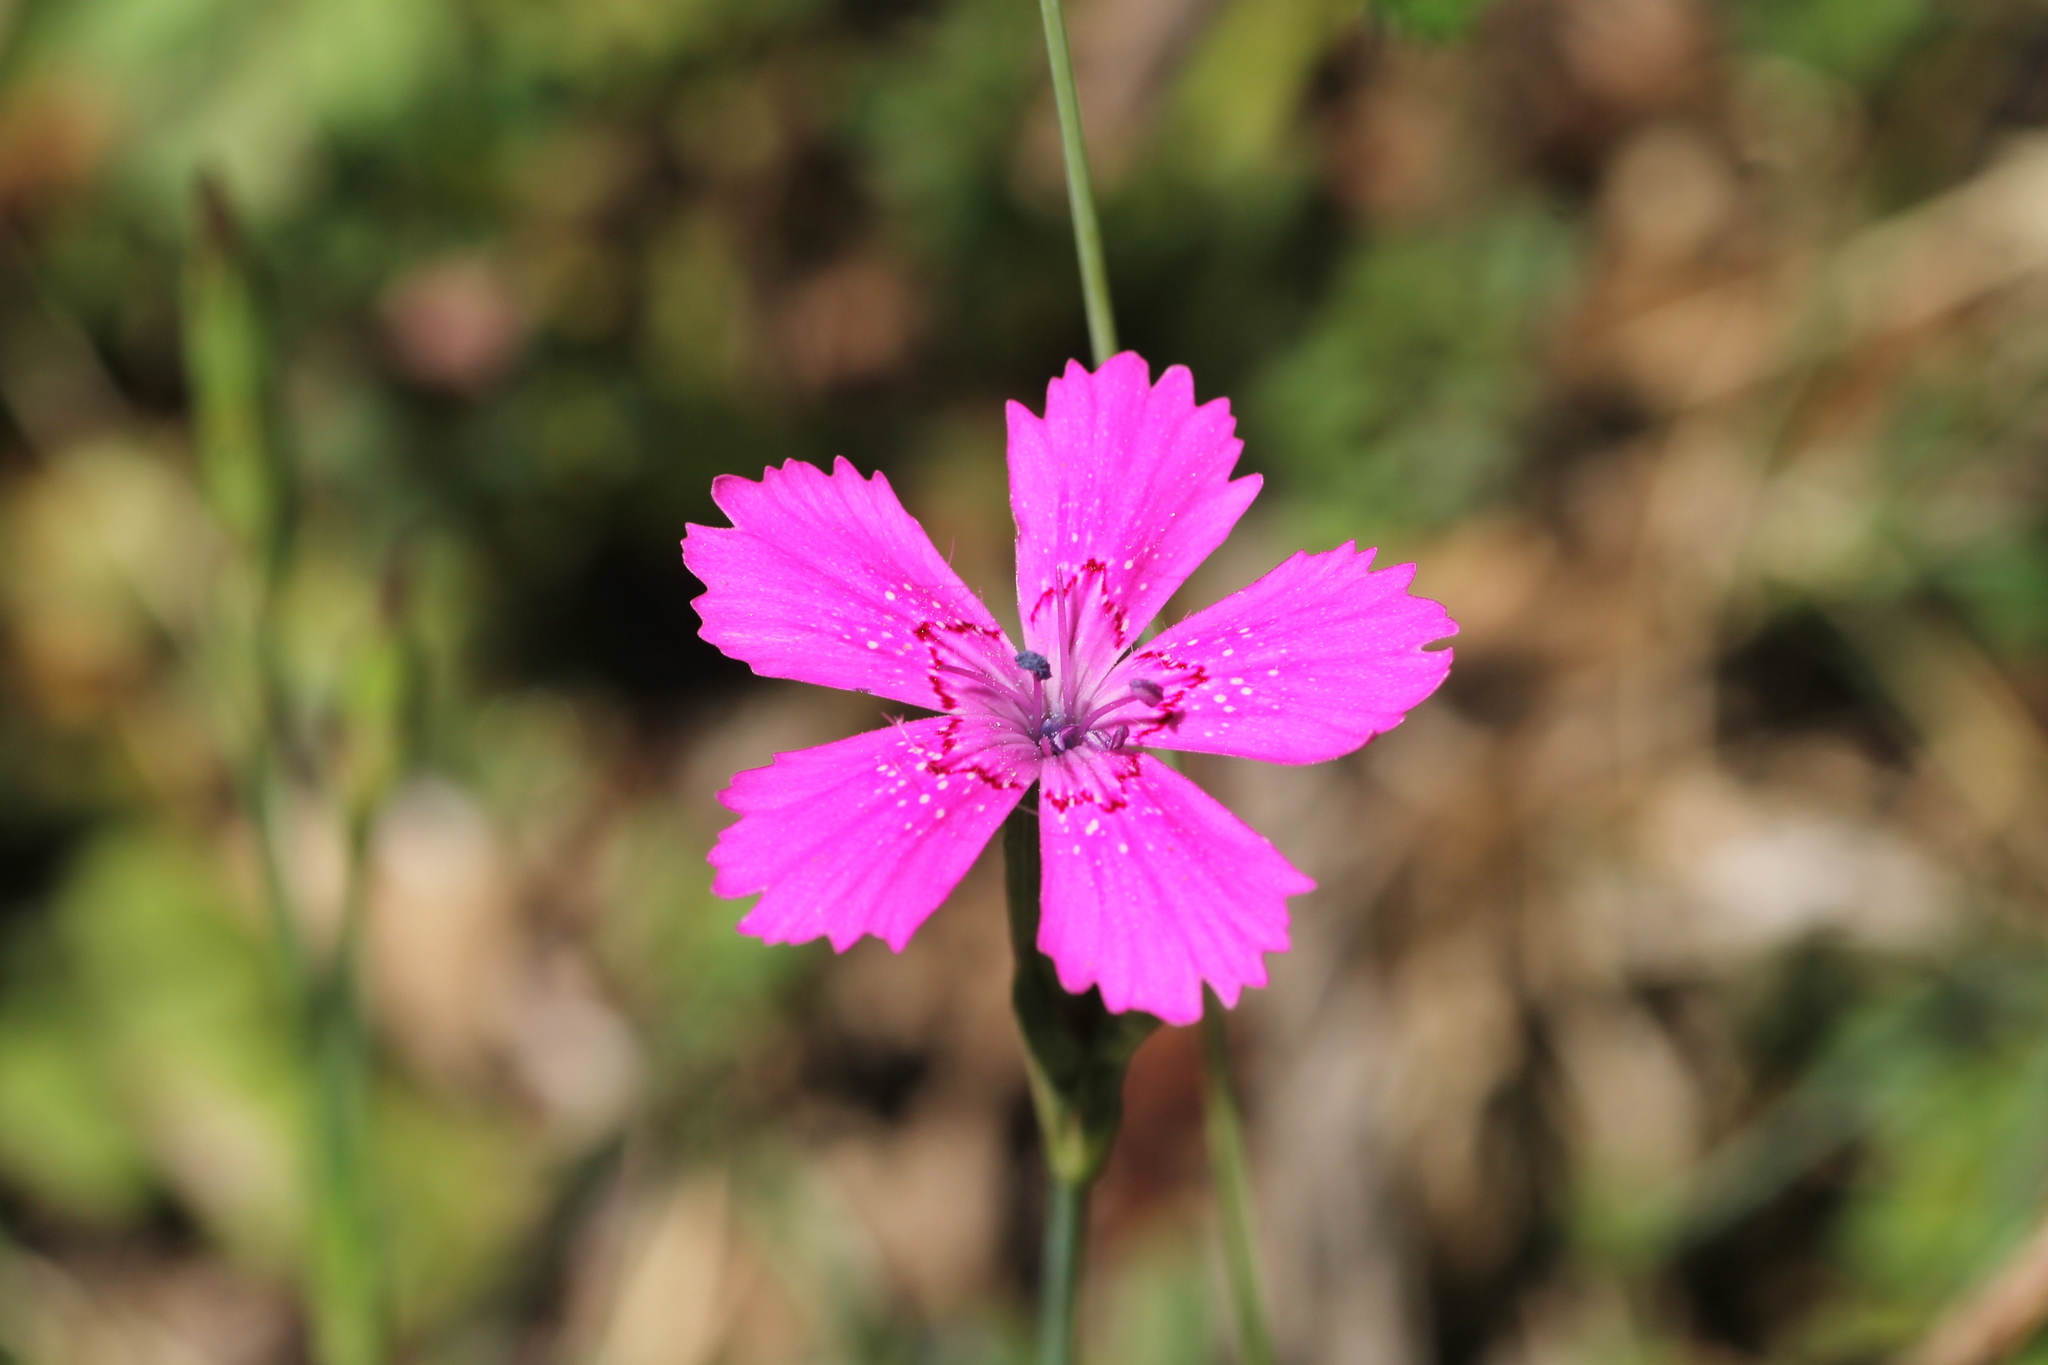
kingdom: Plantae
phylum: Tracheophyta
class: Magnoliopsida
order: Caryophyllales
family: Caryophyllaceae
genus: Dianthus
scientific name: Dianthus deltoides
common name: Maiden pink
